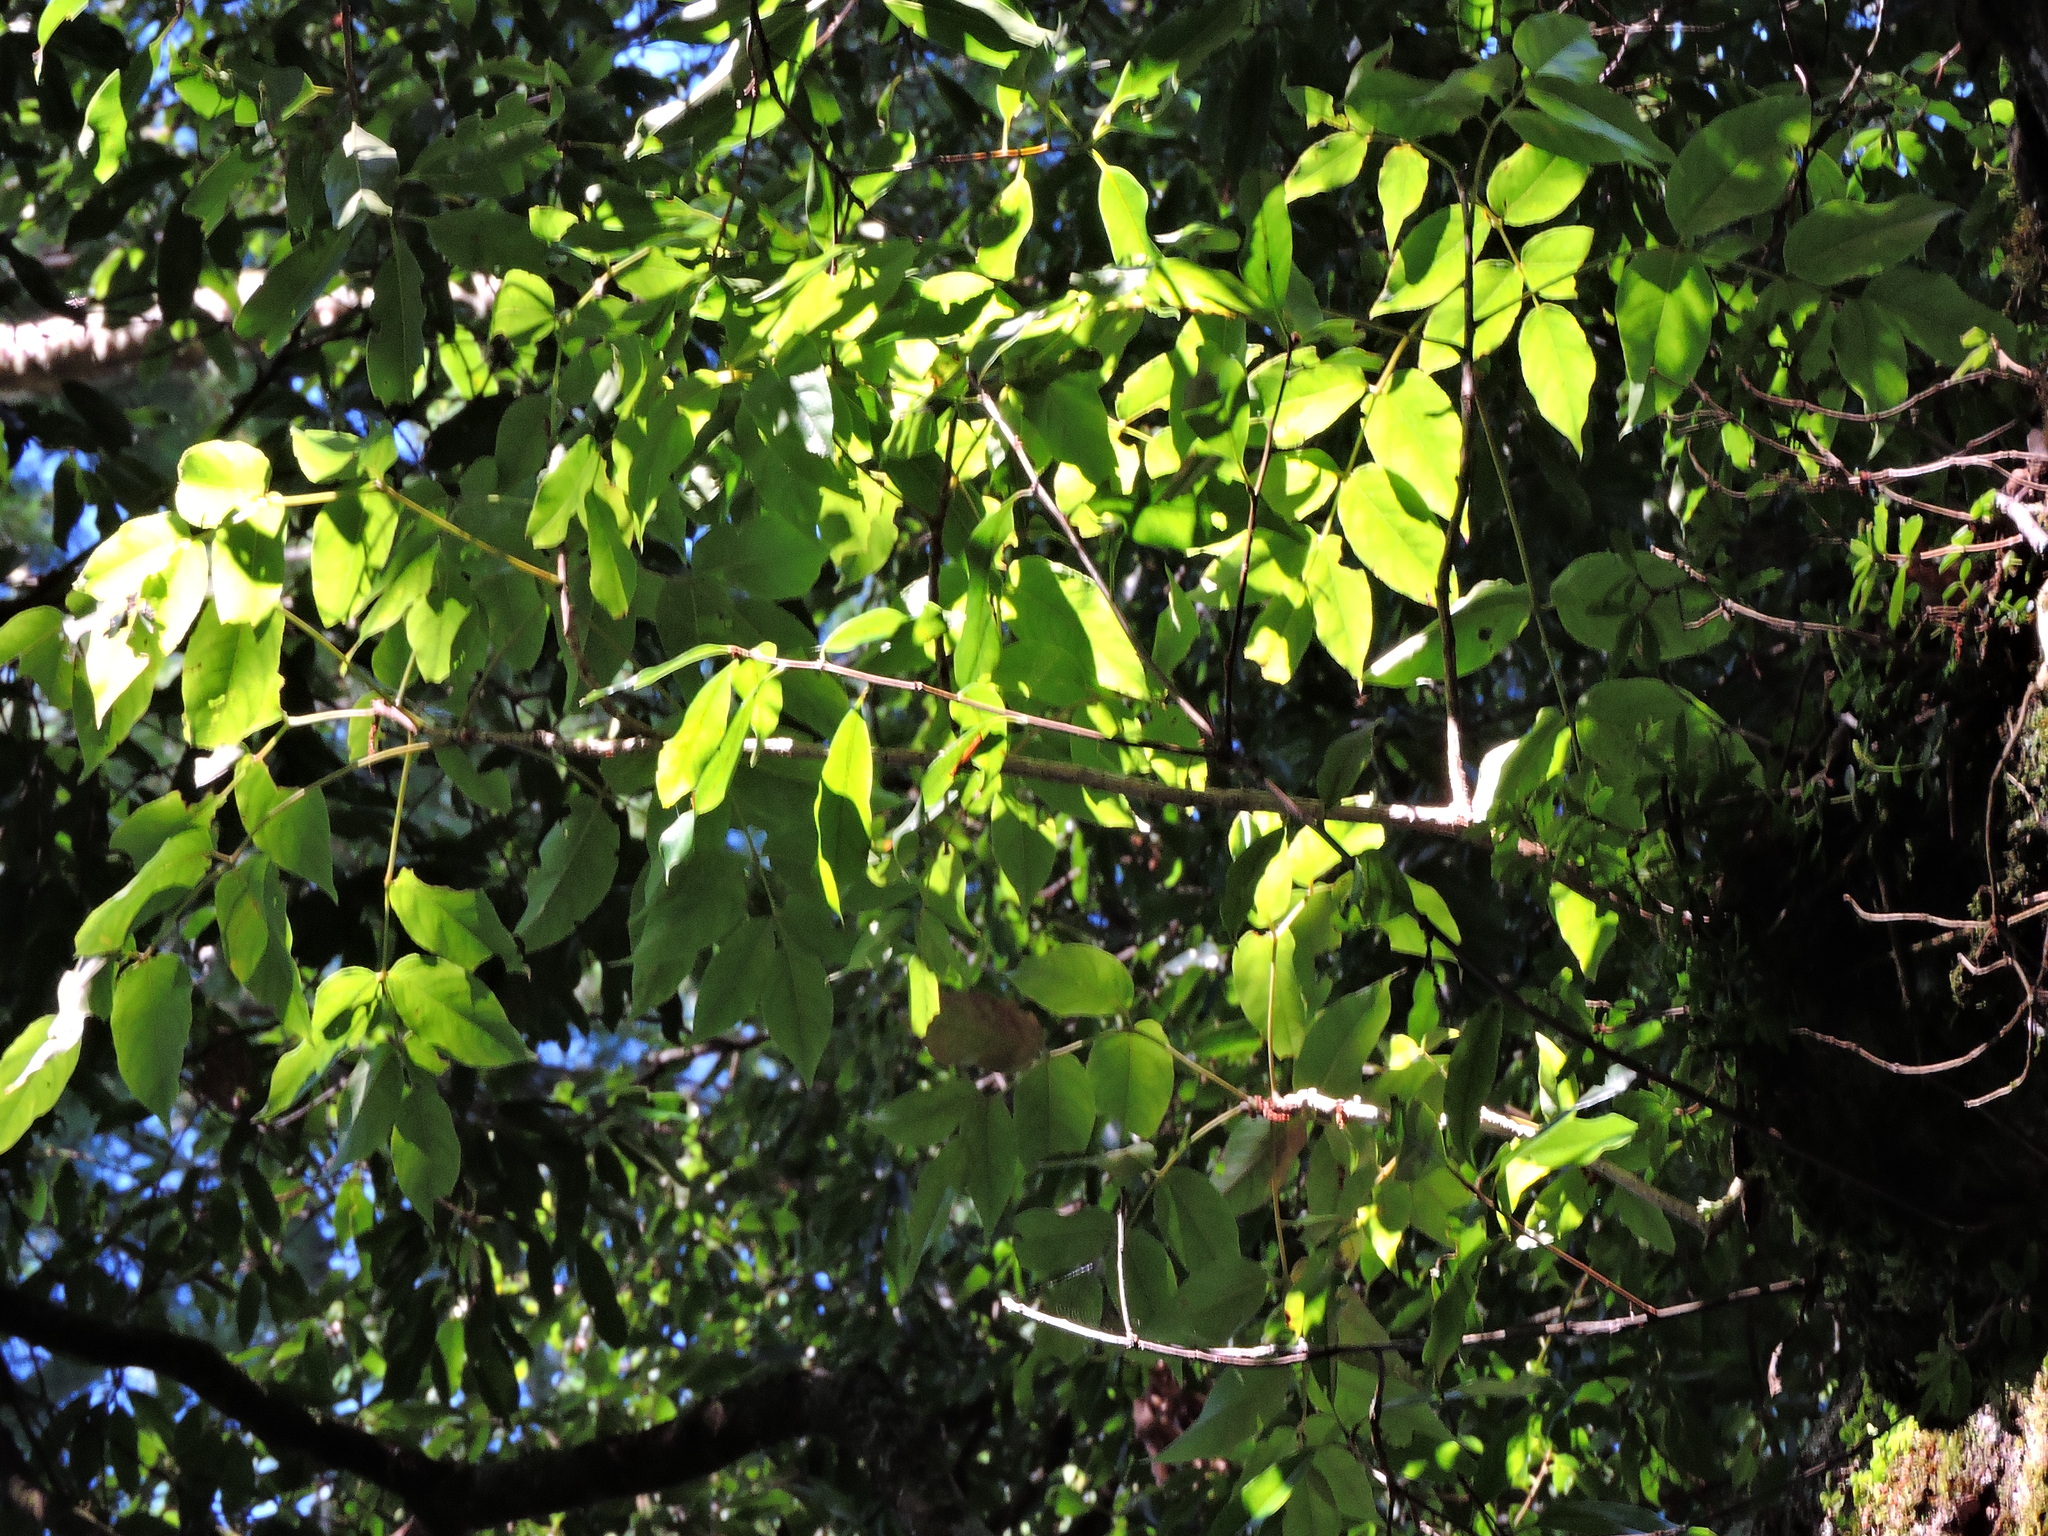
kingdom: Plantae
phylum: Tracheophyta
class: Magnoliopsida
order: Apiales
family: Araliaceae
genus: Aralia
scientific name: Aralia castanopsiscola
